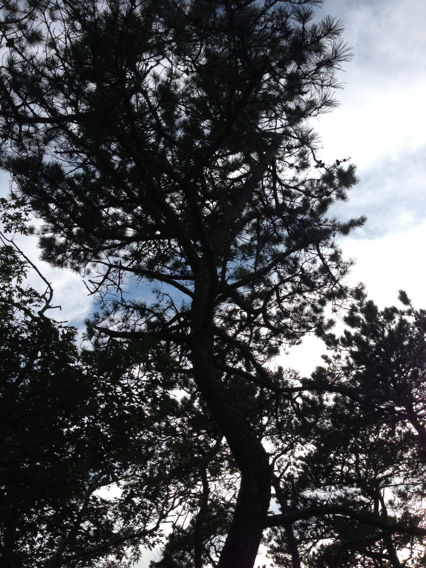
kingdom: Plantae
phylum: Tracheophyta
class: Pinopsida
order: Pinales
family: Pinaceae
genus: Pinus
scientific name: Pinus rigida
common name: Pitch pine
